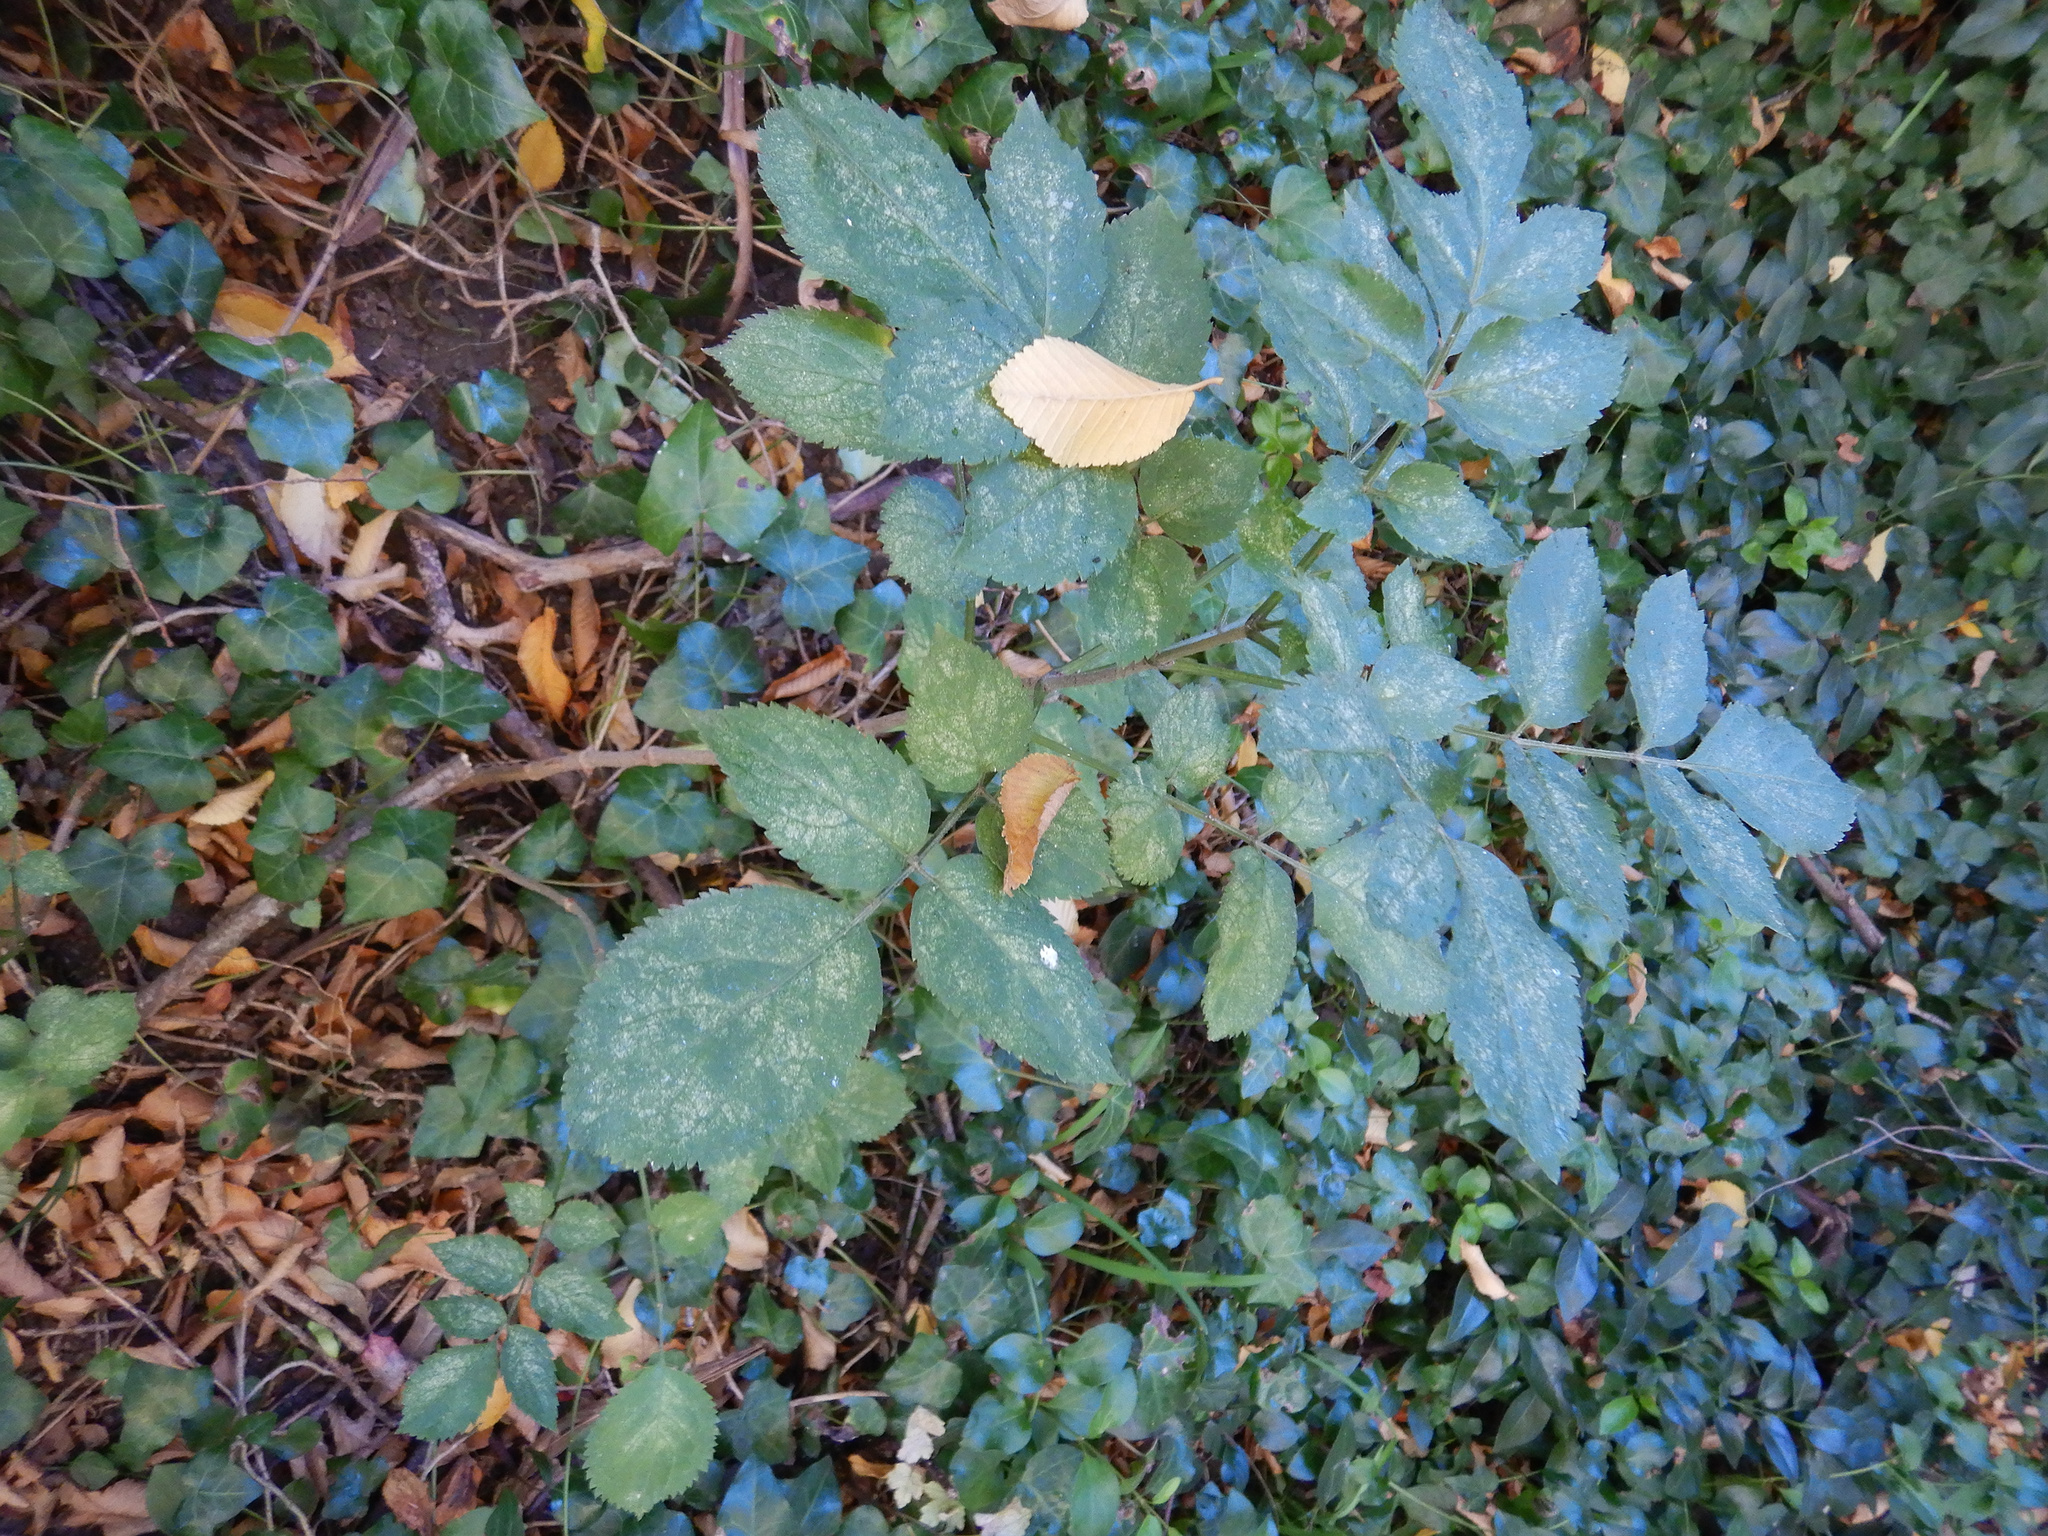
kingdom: Plantae
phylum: Tracheophyta
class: Magnoliopsida
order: Dipsacales
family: Viburnaceae
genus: Sambucus
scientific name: Sambucus nigra
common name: Elder
